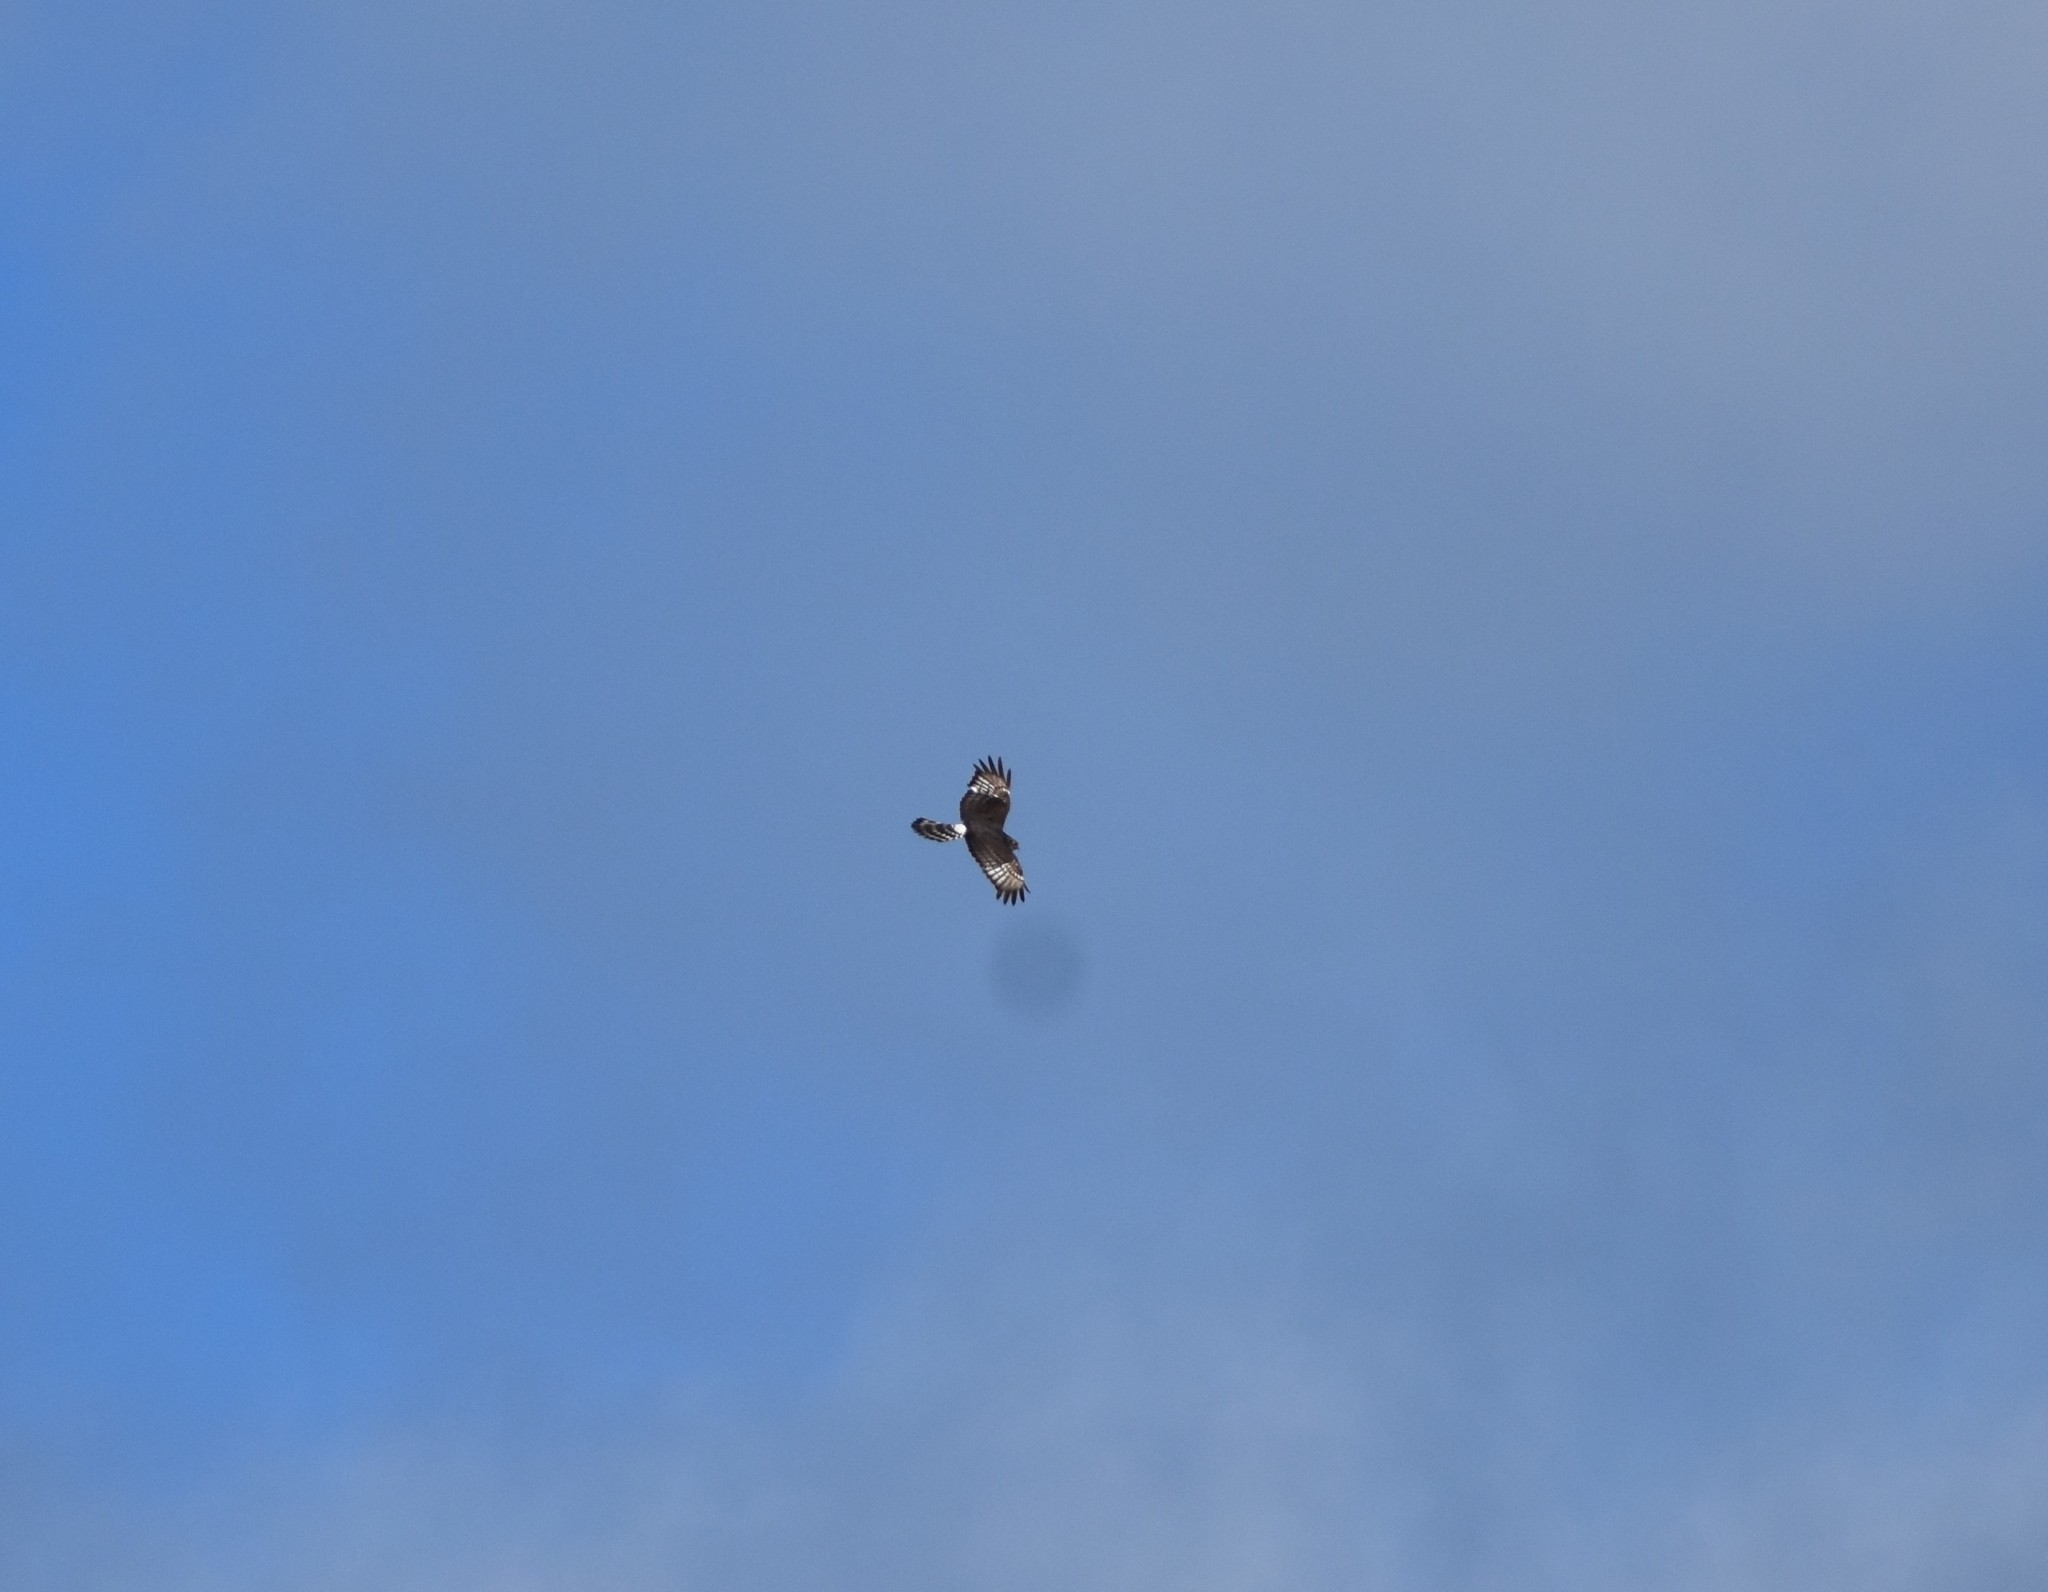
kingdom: Animalia
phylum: Chordata
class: Aves
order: Accipitriformes
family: Accipitridae
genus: Circus
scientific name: Circus maurus
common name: Black harrier
